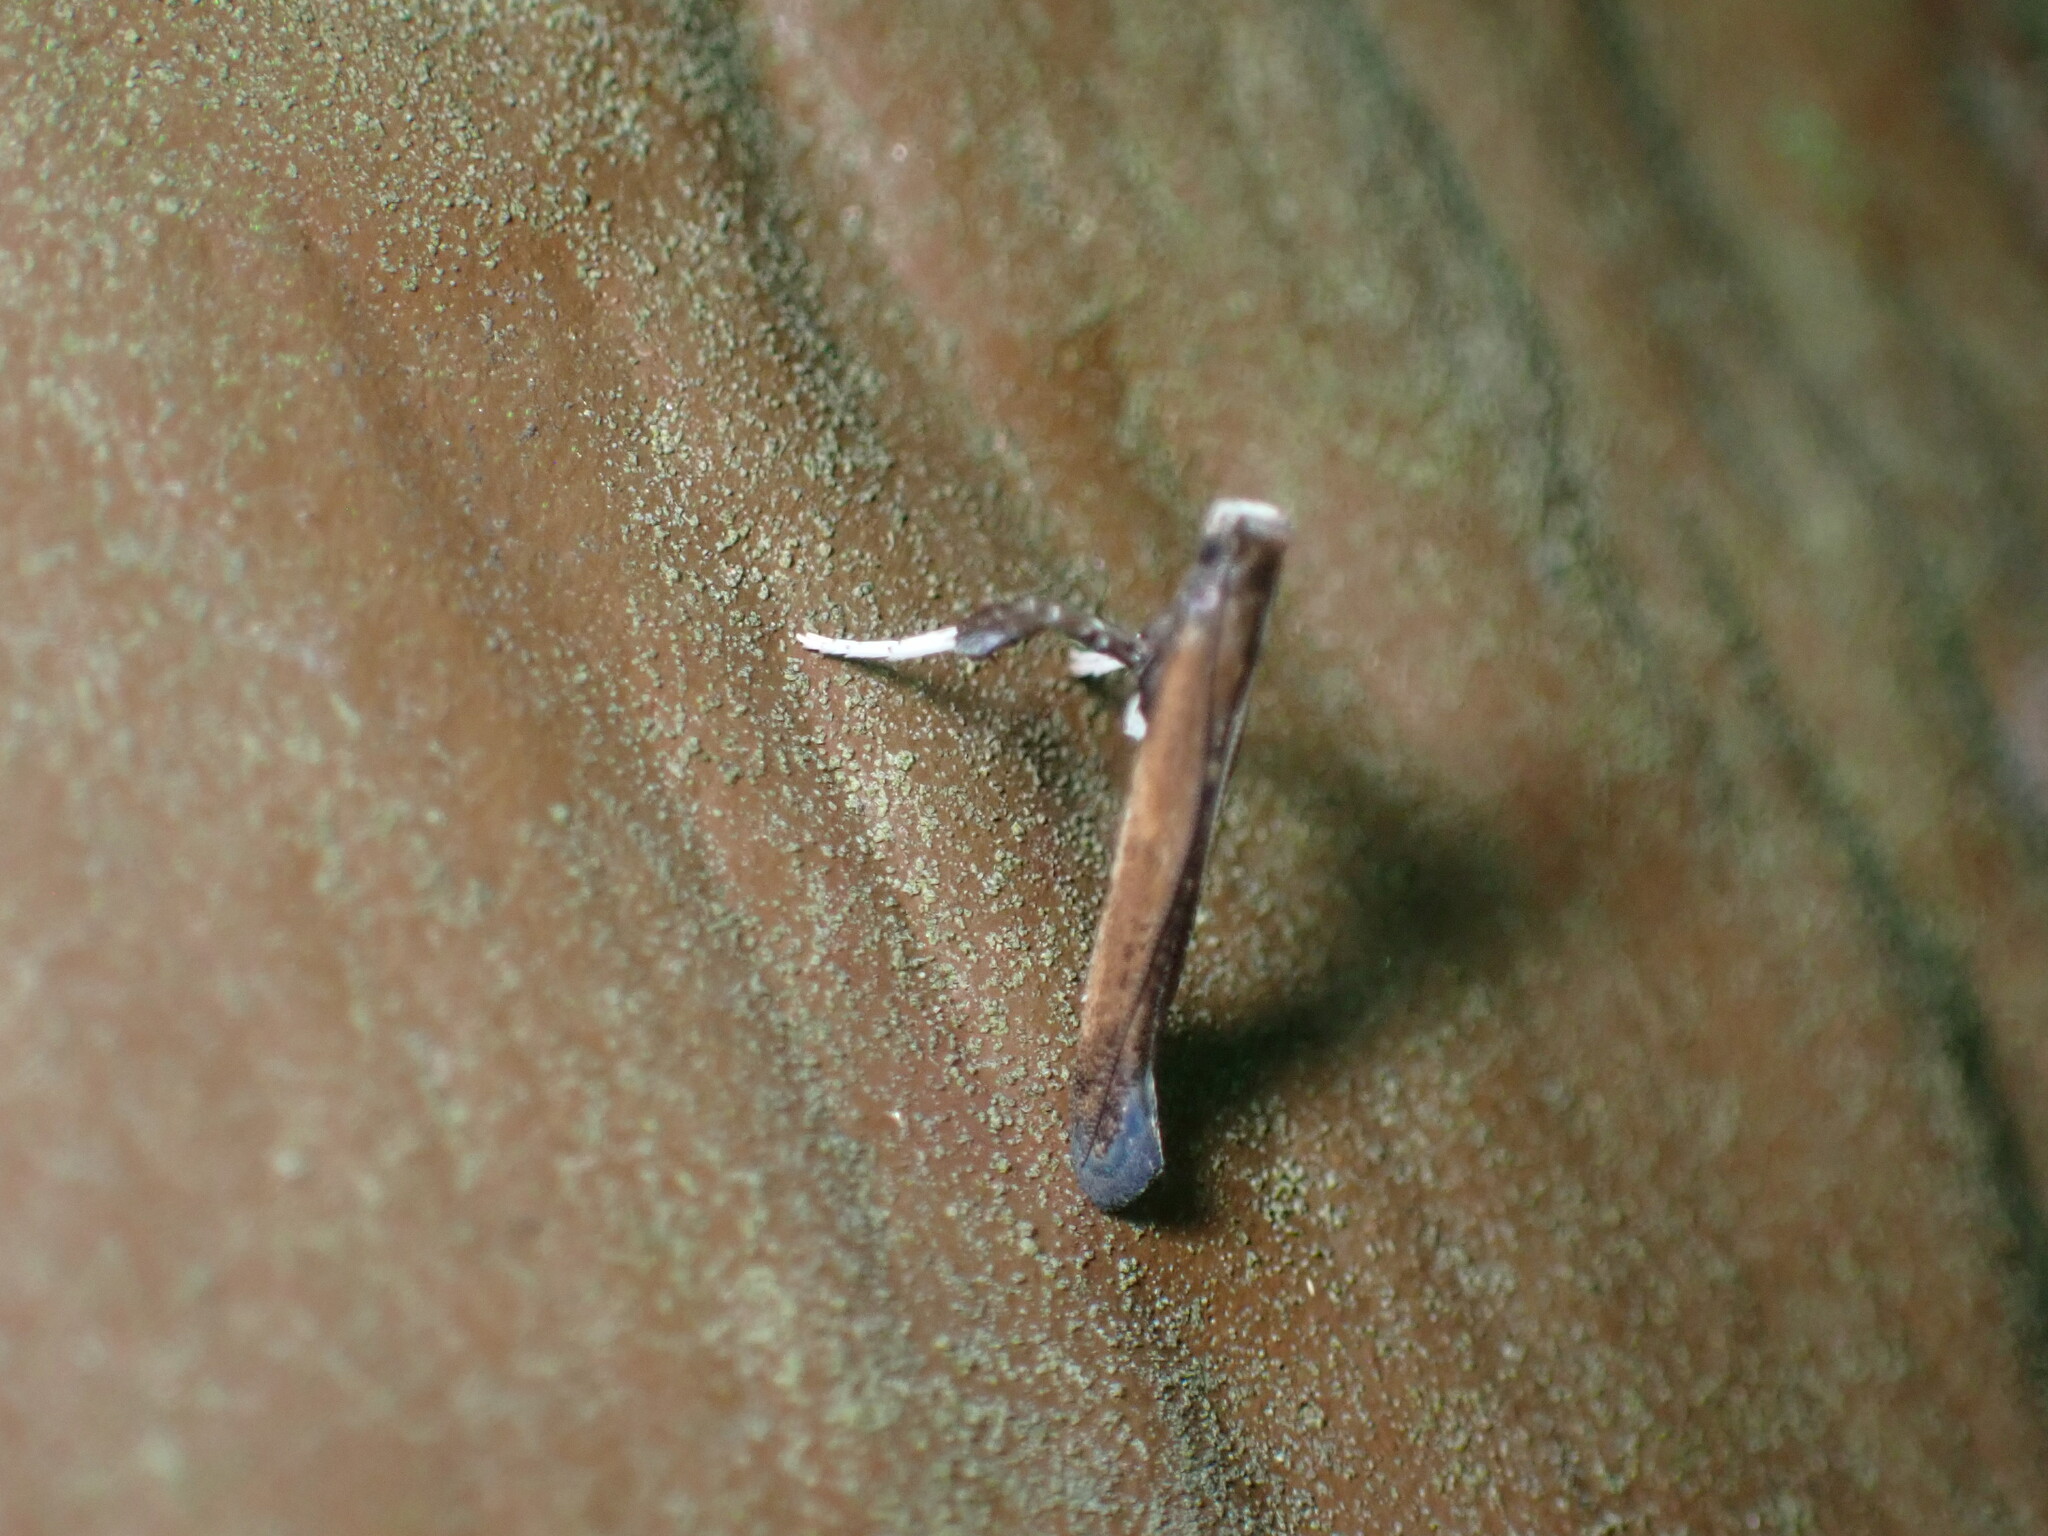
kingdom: Animalia
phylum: Arthropoda
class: Insecta
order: Lepidoptera
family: Gracillariidae
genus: Caloptilia
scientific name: Caloptilia rhoifoliella
